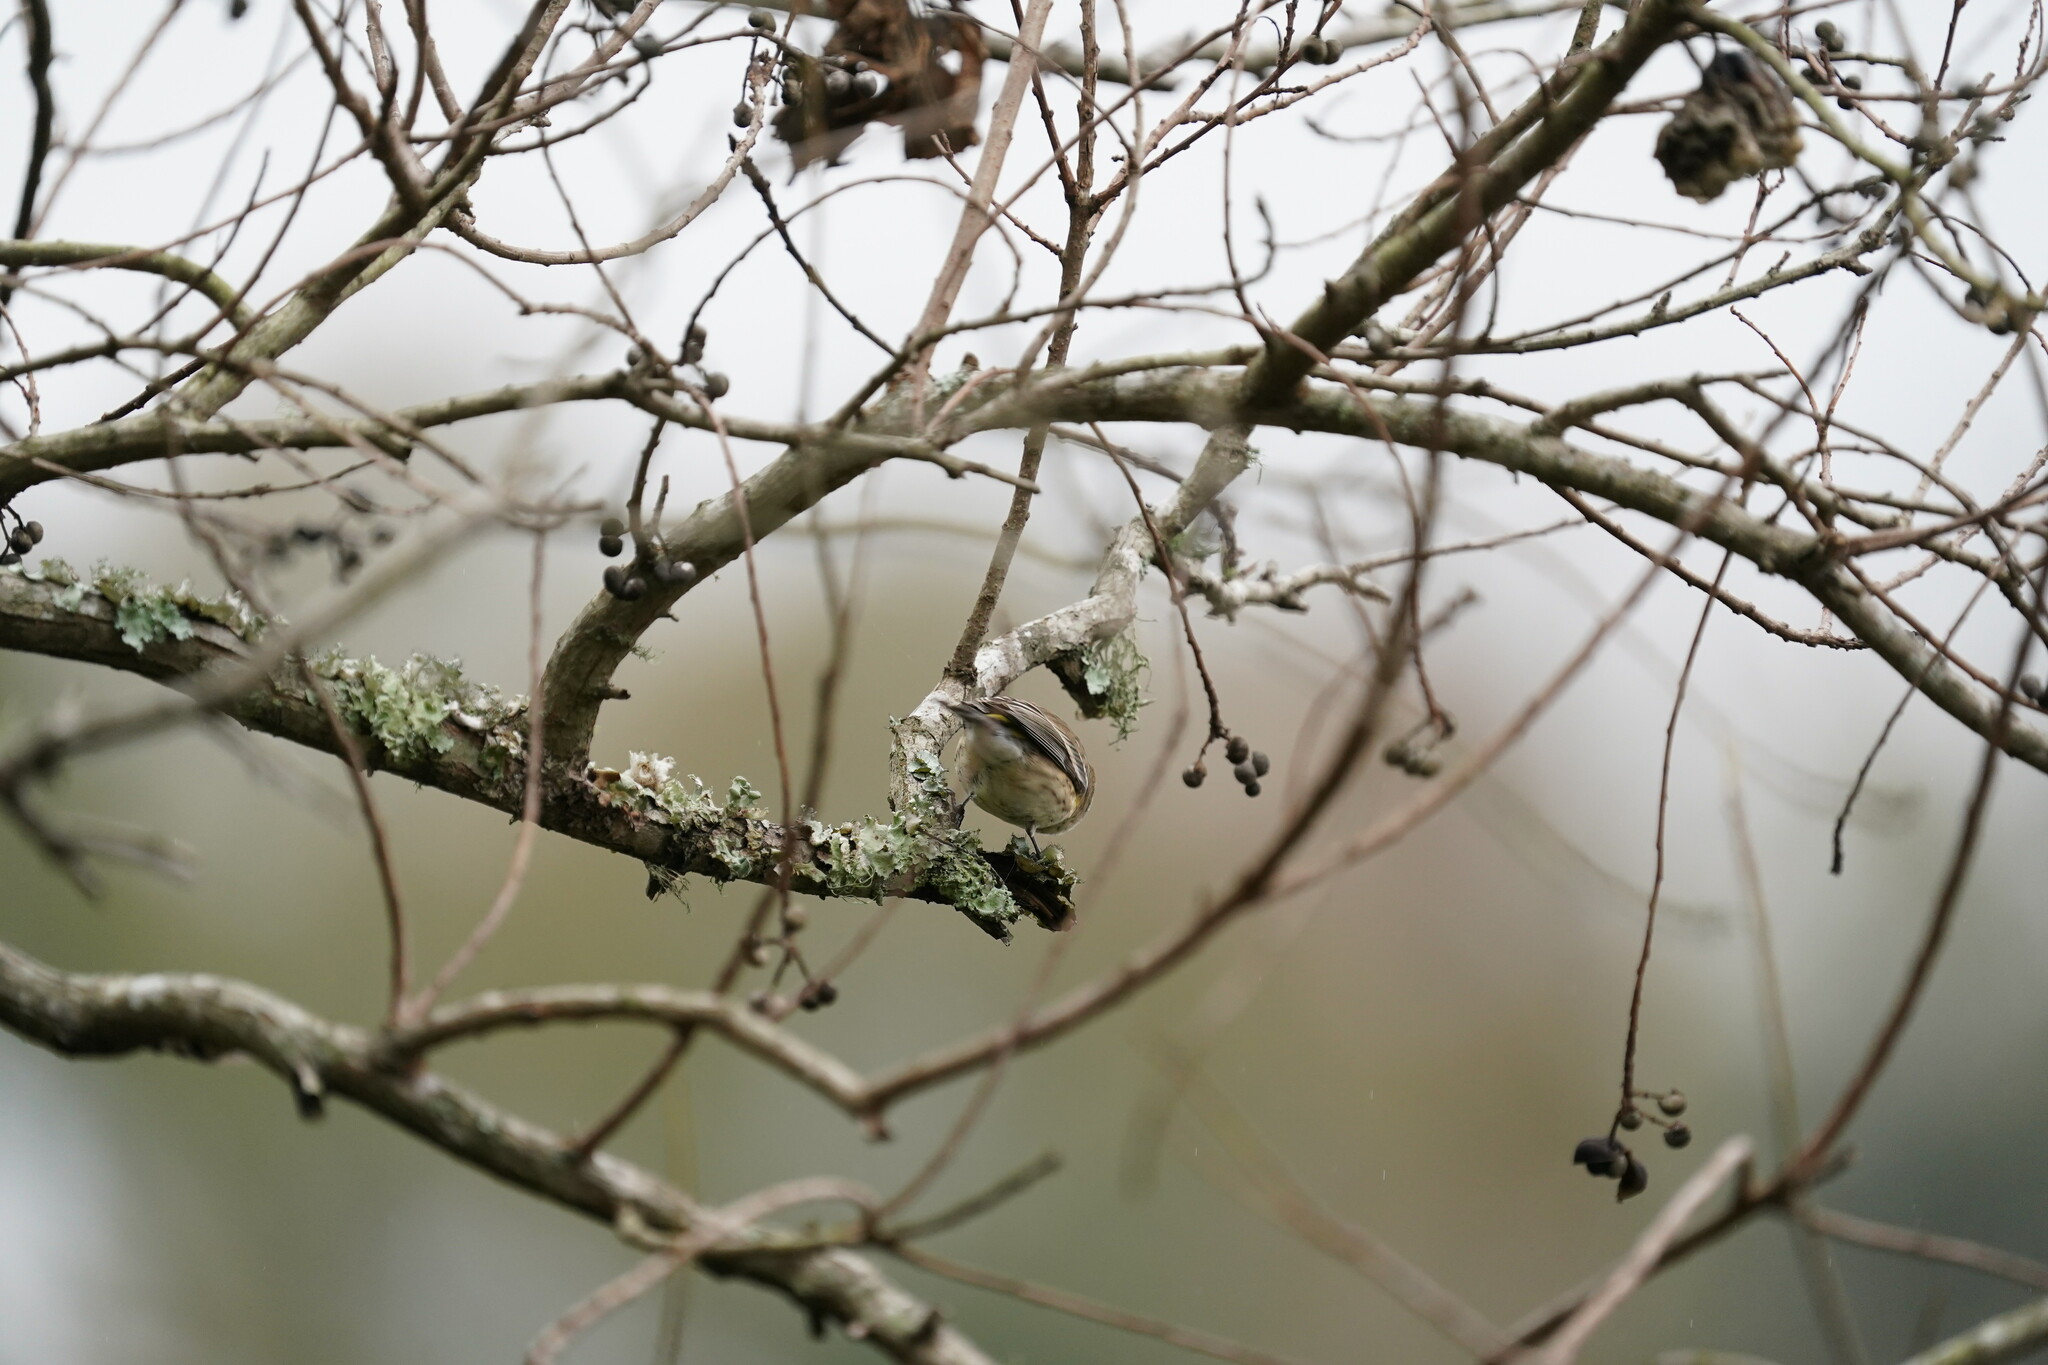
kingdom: Animalia
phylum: Chordata
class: Aves
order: Passeriformes
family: Parulidae
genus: Setophaga
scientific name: Setophaga coronata
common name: Myrtle warbler
